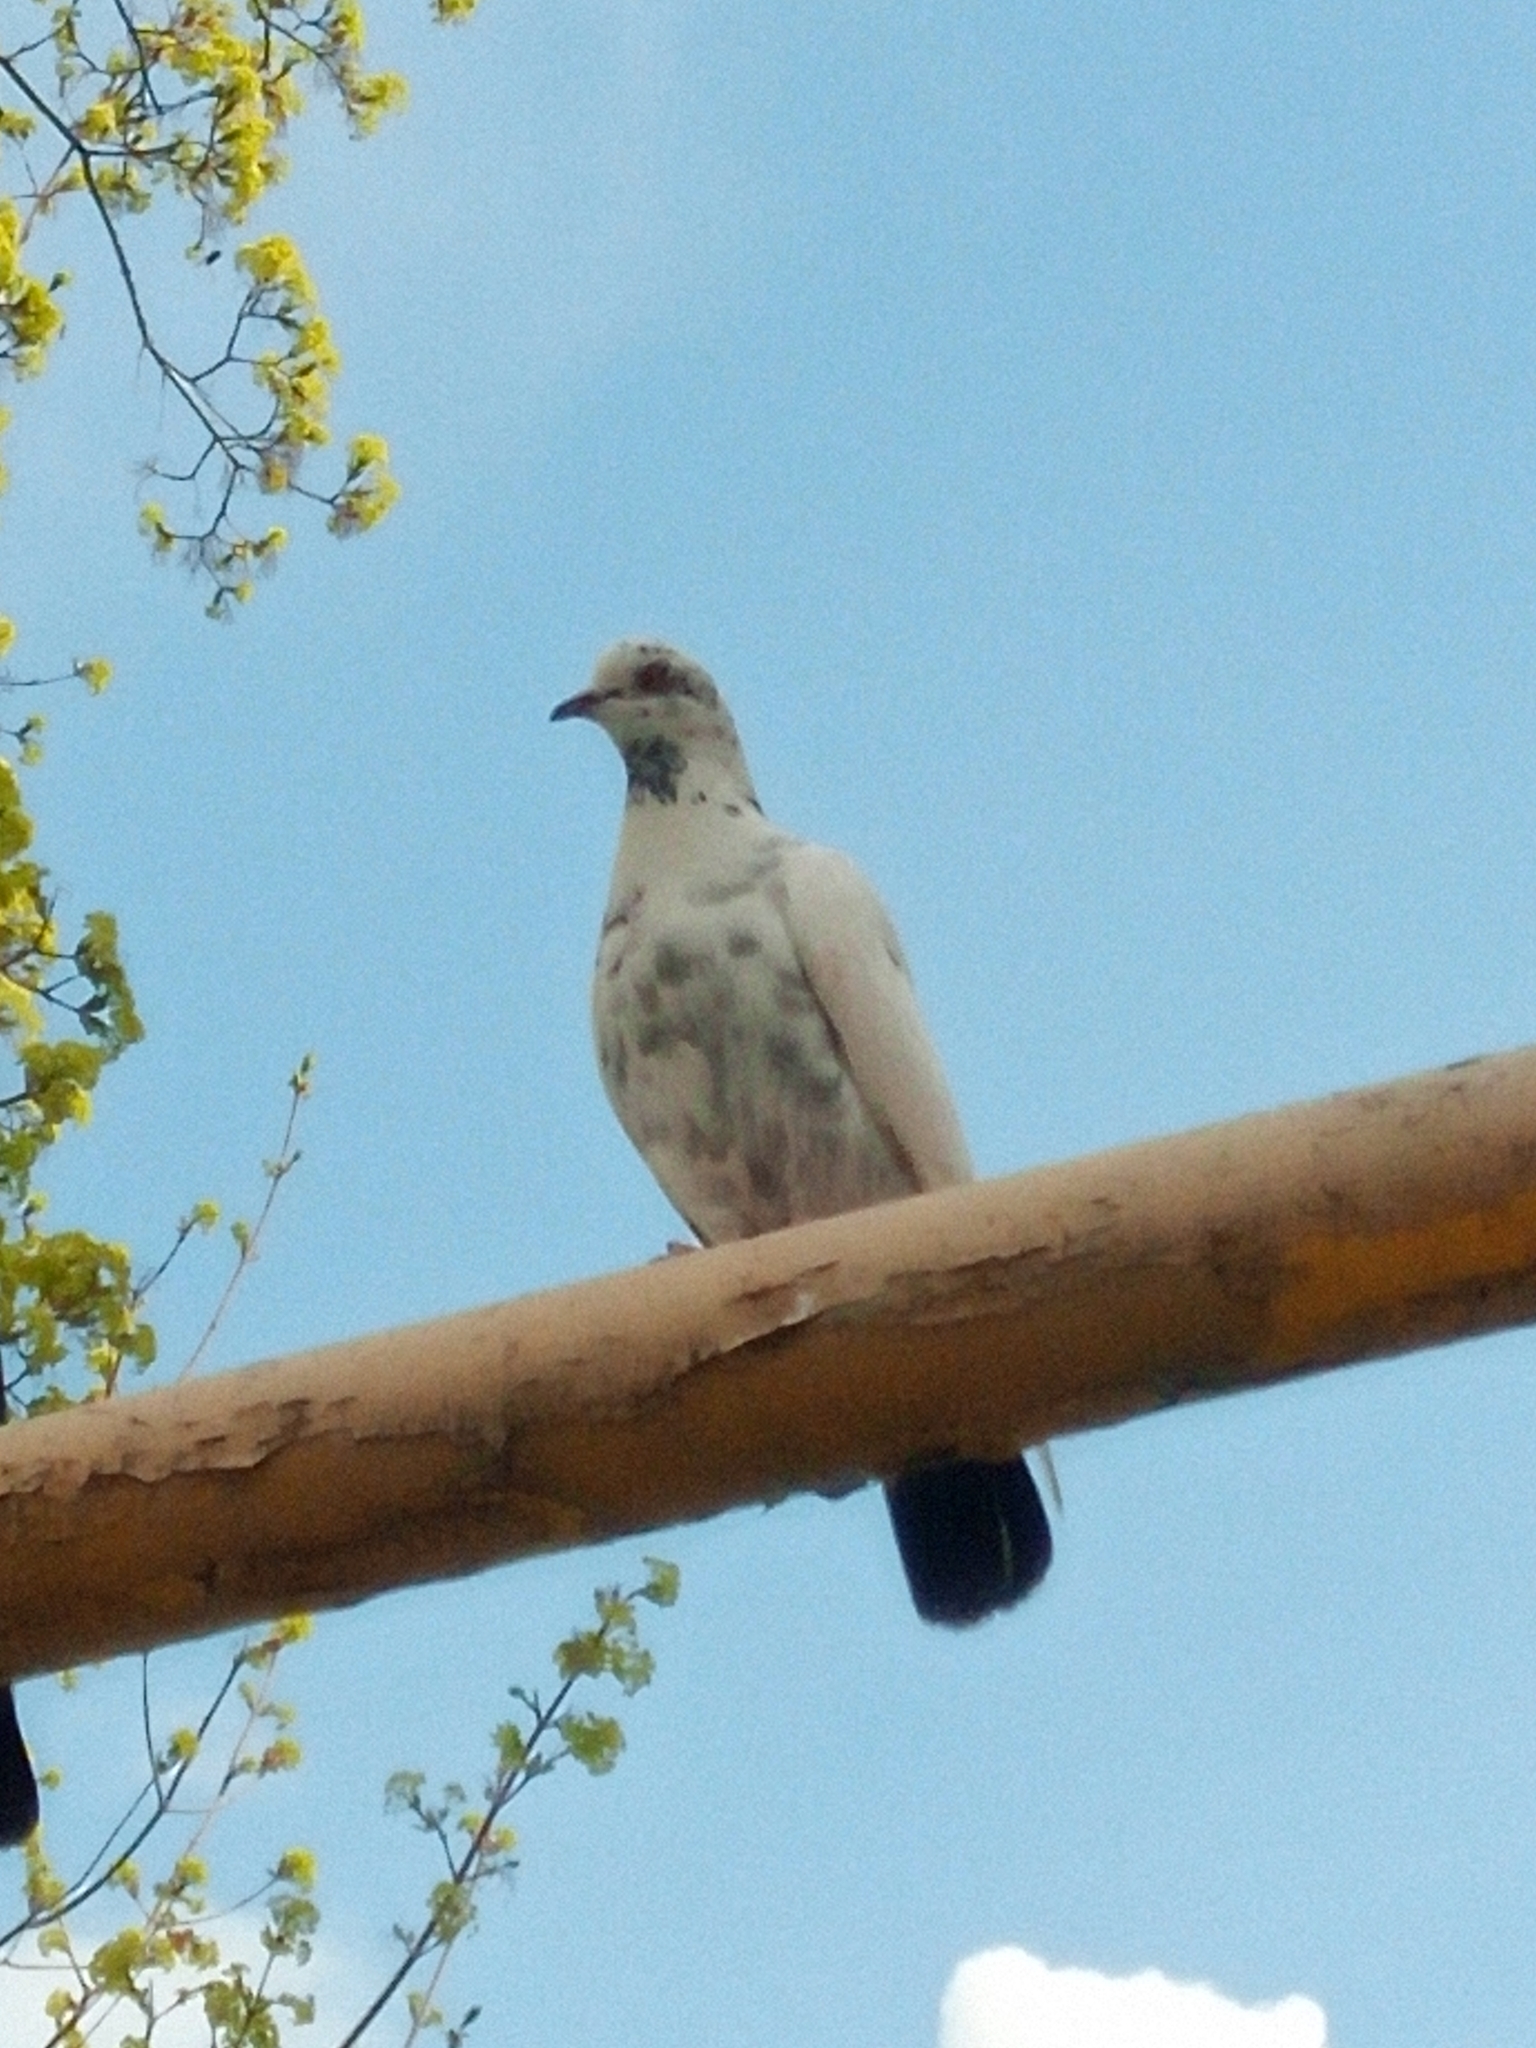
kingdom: Animalia
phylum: Chordata
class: Aves
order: Columbiformes
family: Columbidae
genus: Columba
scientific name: Columba livia
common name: Rock pigeon
